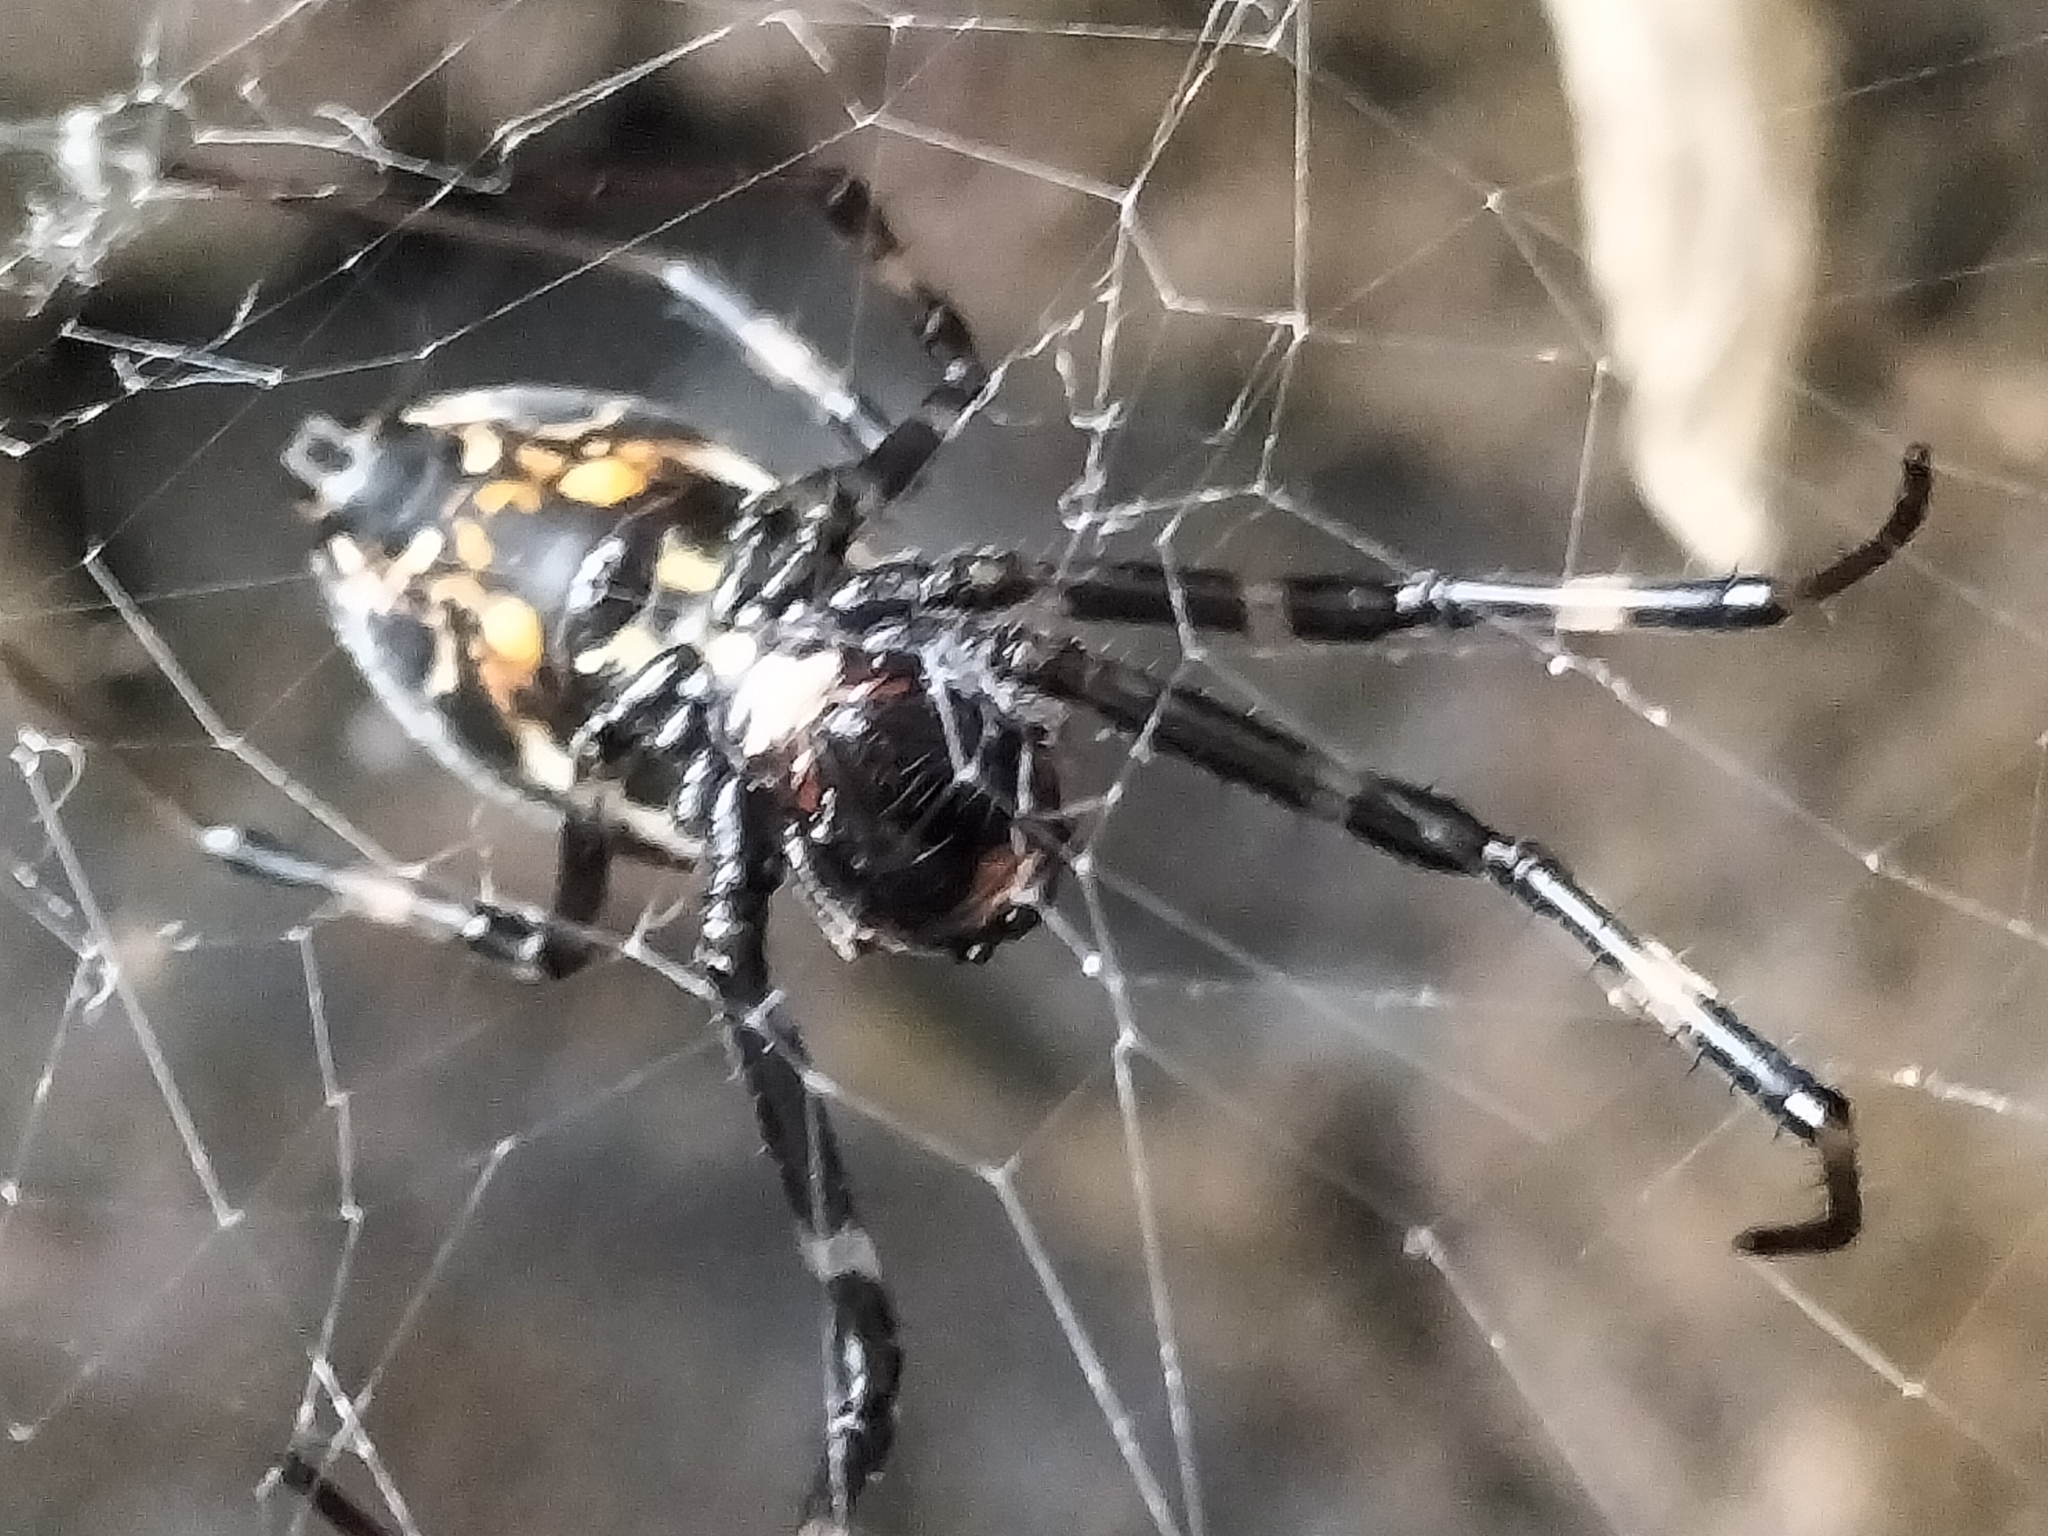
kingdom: Animalia
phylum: Arthropoda
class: Arachnida
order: Araneae
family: Araneidae
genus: Nephilengys
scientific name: Nephilengys papuana
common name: Papuan hermit spider
